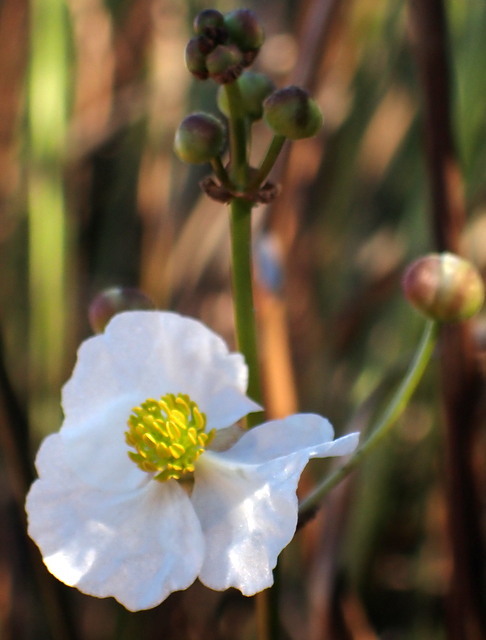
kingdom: Plantae
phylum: Tracheophyta
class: Liliopsida
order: Alismatales
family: Alismataceae
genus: Sagittaria
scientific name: Sagittaria lancifolia
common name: Lance-leaf arrowhead
